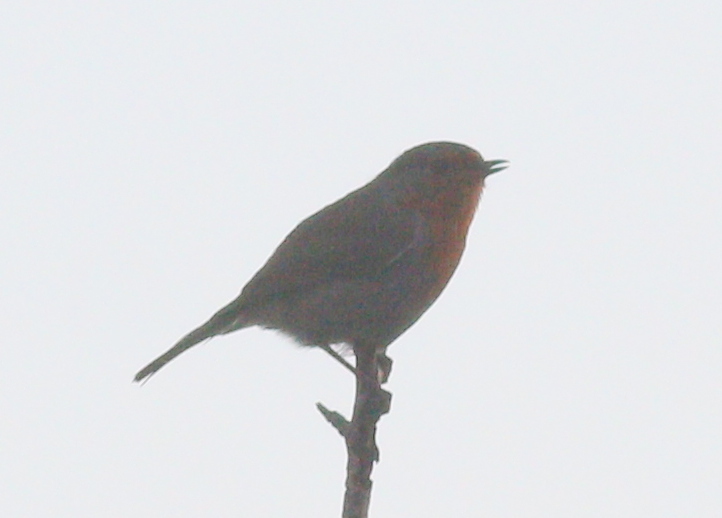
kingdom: Animalia
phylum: Chordata
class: Aves
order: Passeriformes
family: Muscicapidae
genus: Erithacus
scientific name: Erithacus rubecula
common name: European robin
